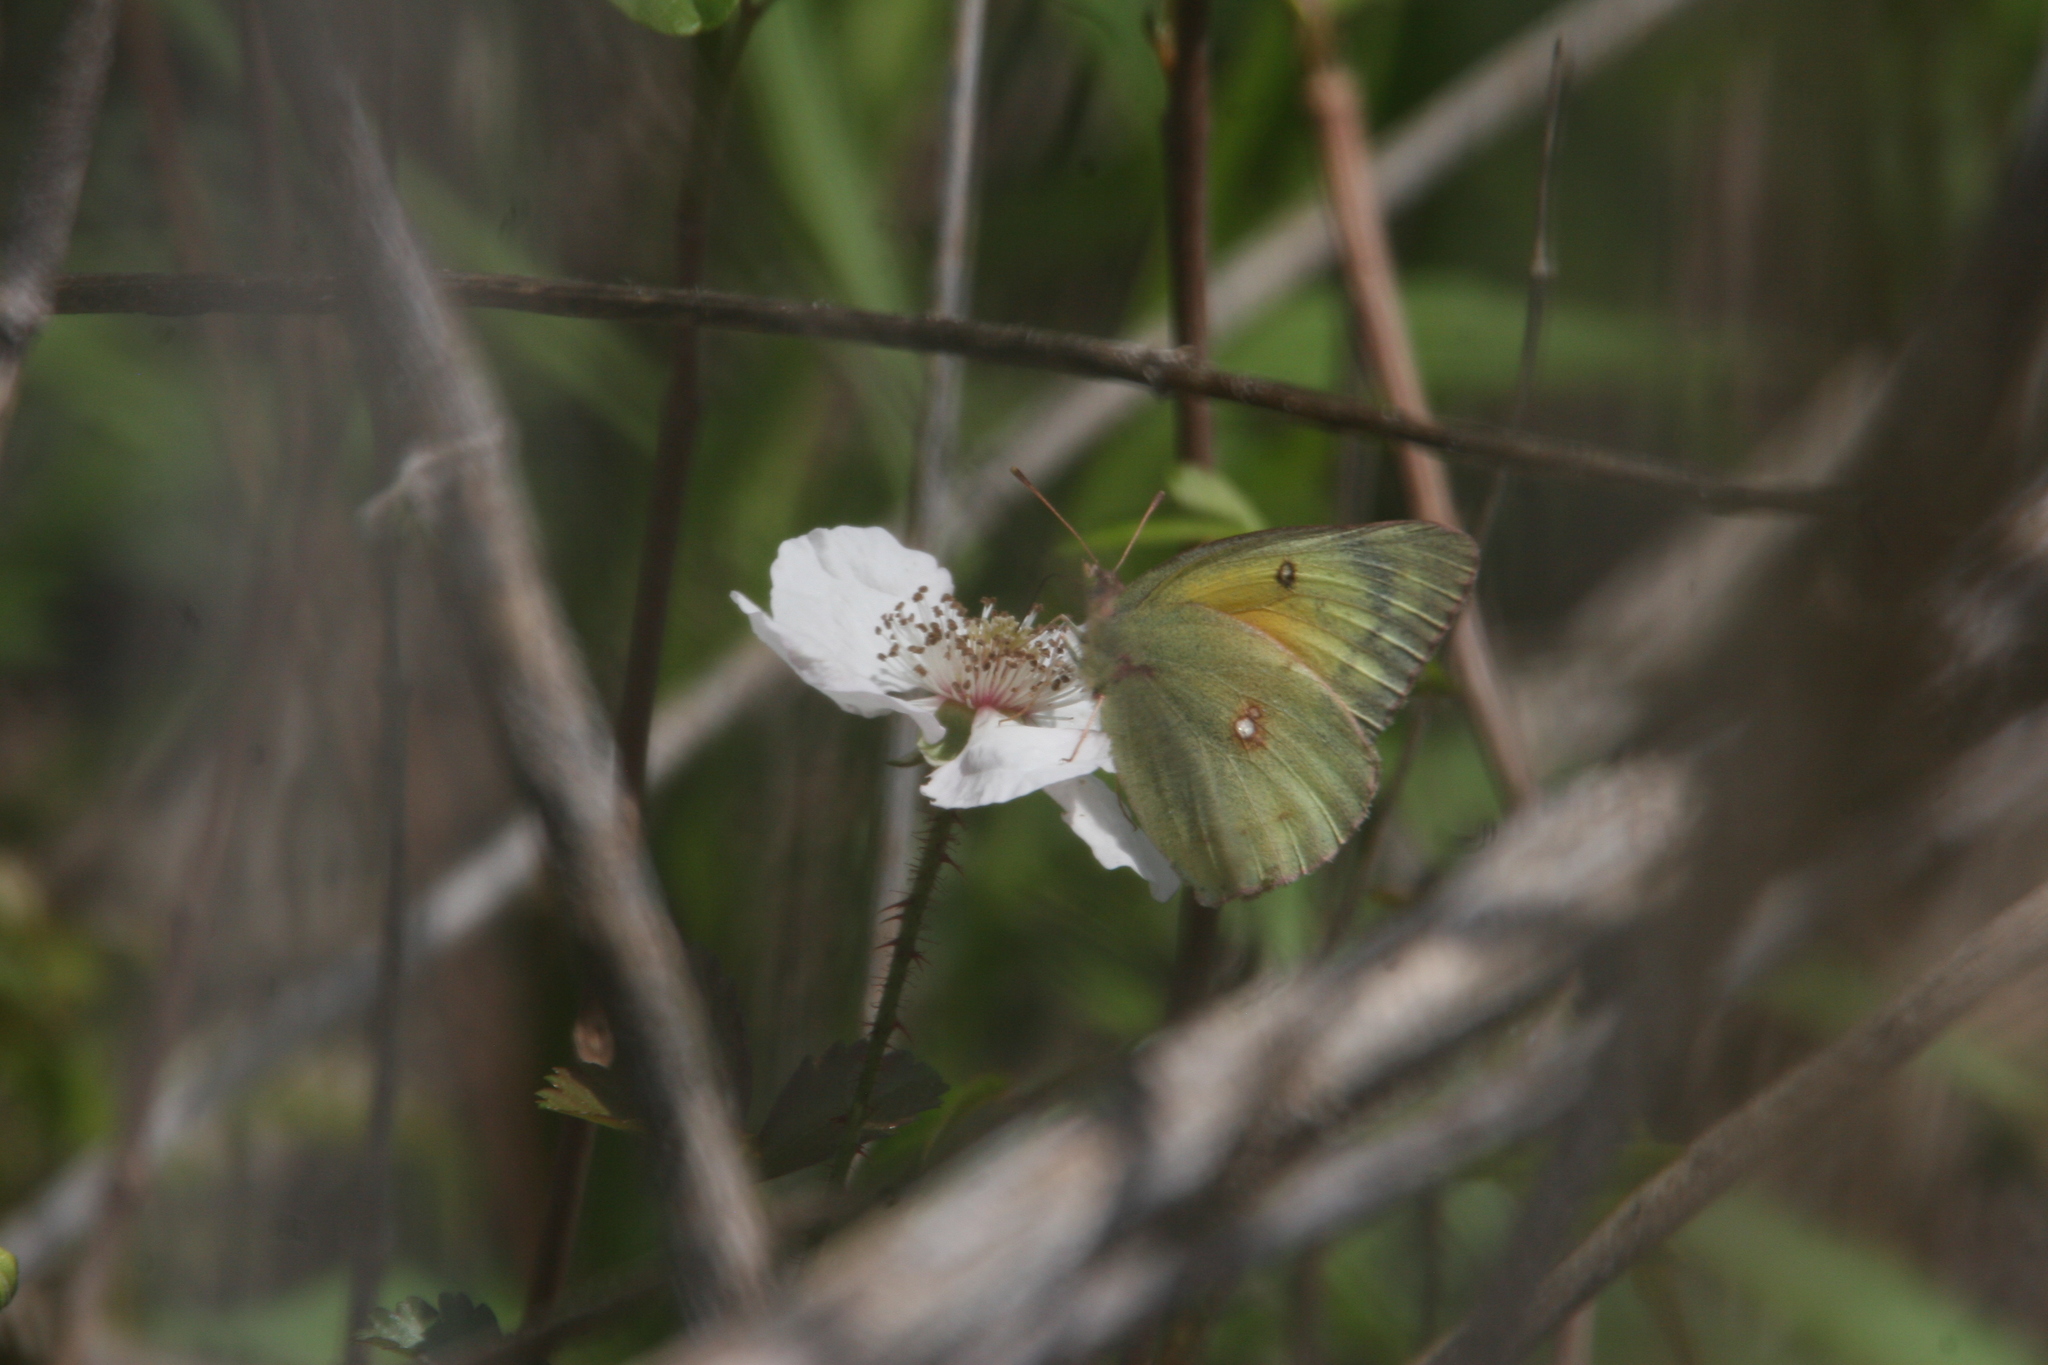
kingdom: Animalia
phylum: Arthropoda
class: Insecta
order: Lepidoptera
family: Pieridae
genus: Colias
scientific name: Colias eurytheme
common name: Alfalfa butterfly
